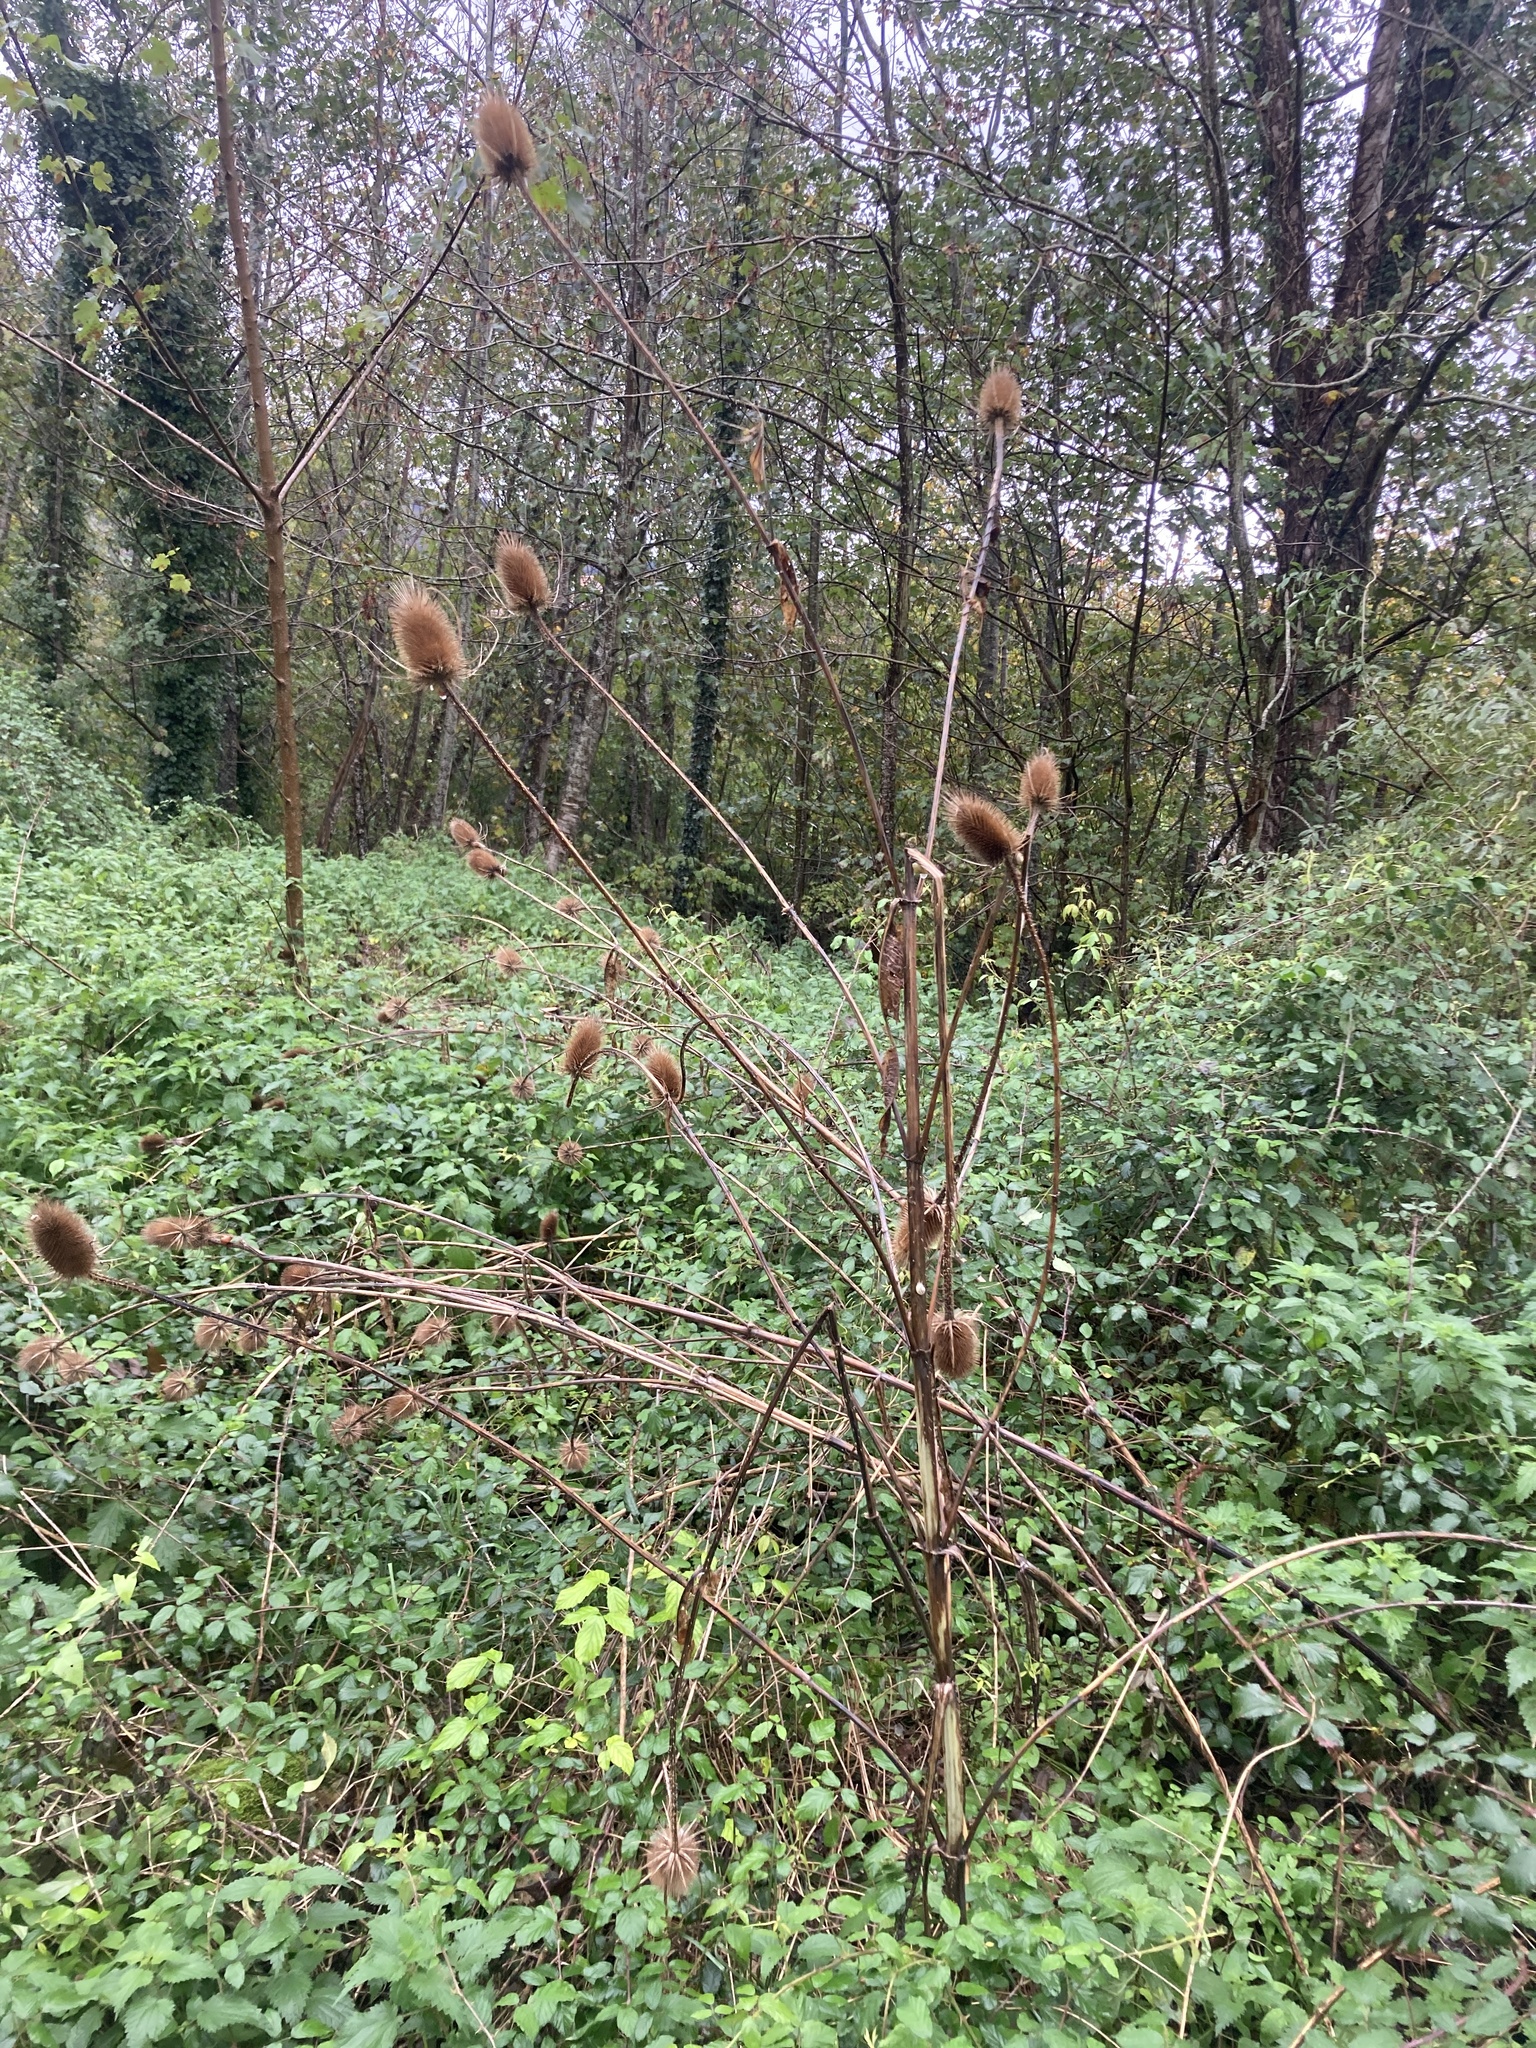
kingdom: Plantae
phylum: Tracheophyta
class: Magnoliopsida
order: Dipsacales
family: Caprifoliaceae
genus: Dipsacus
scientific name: Dipsacus fullonum
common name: Teasel
